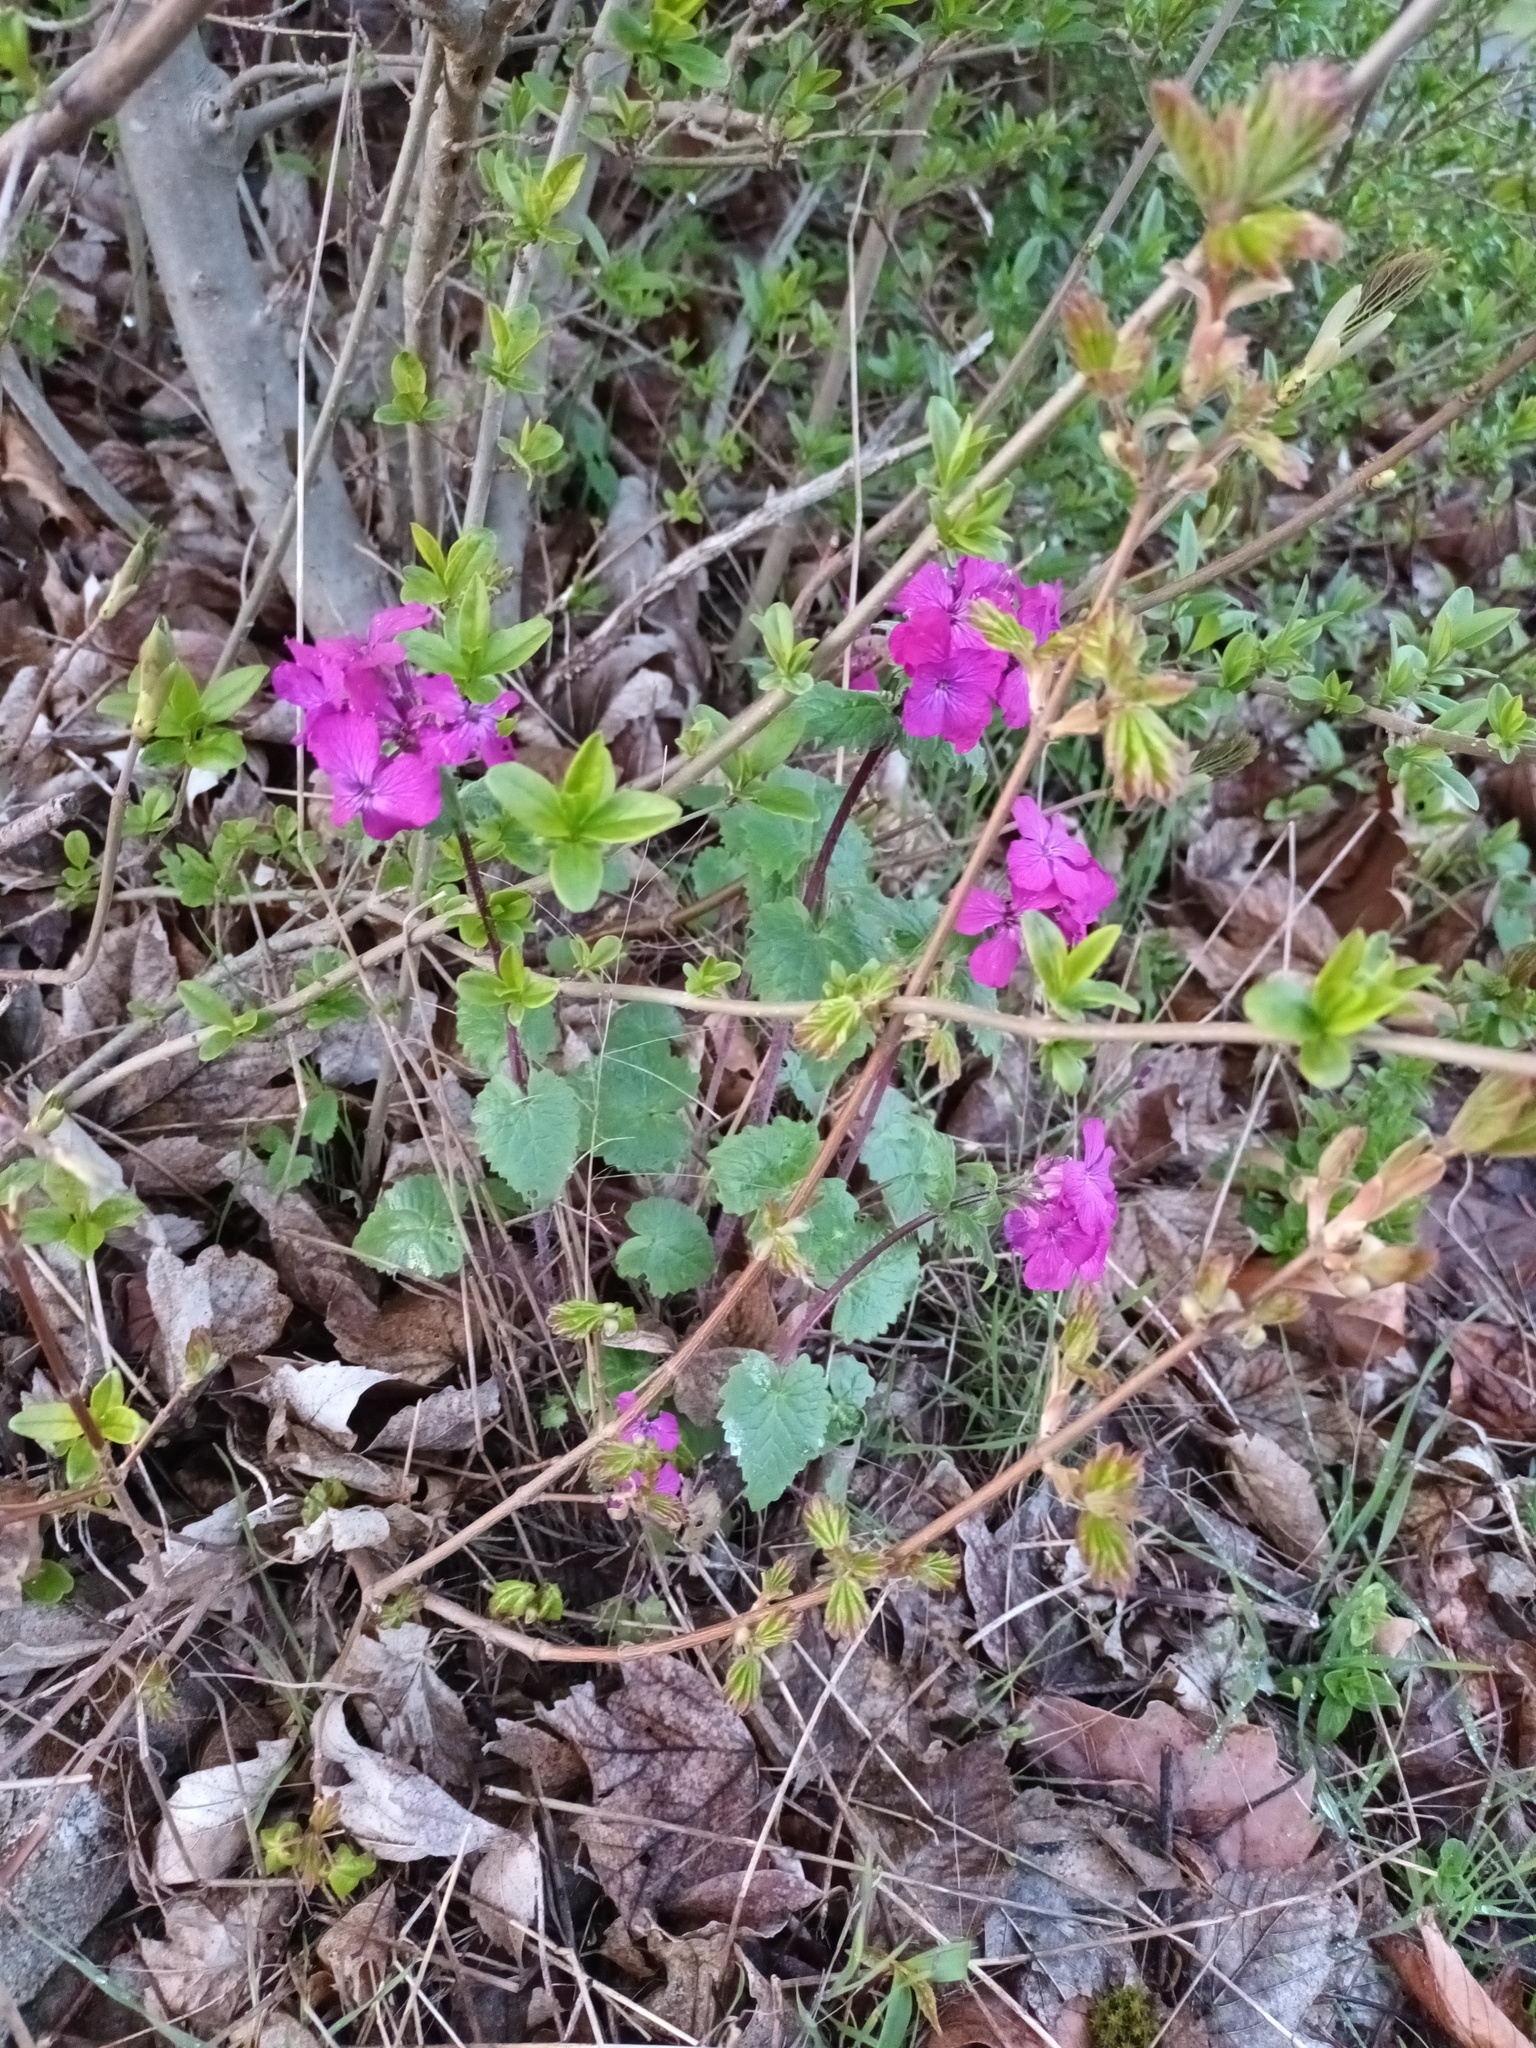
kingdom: Plantae
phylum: Tracheophyta
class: Magnoliopsida
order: Brassicales
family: Brassicaceae
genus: Lunaria
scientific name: Lunaria annua
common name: Honesty
